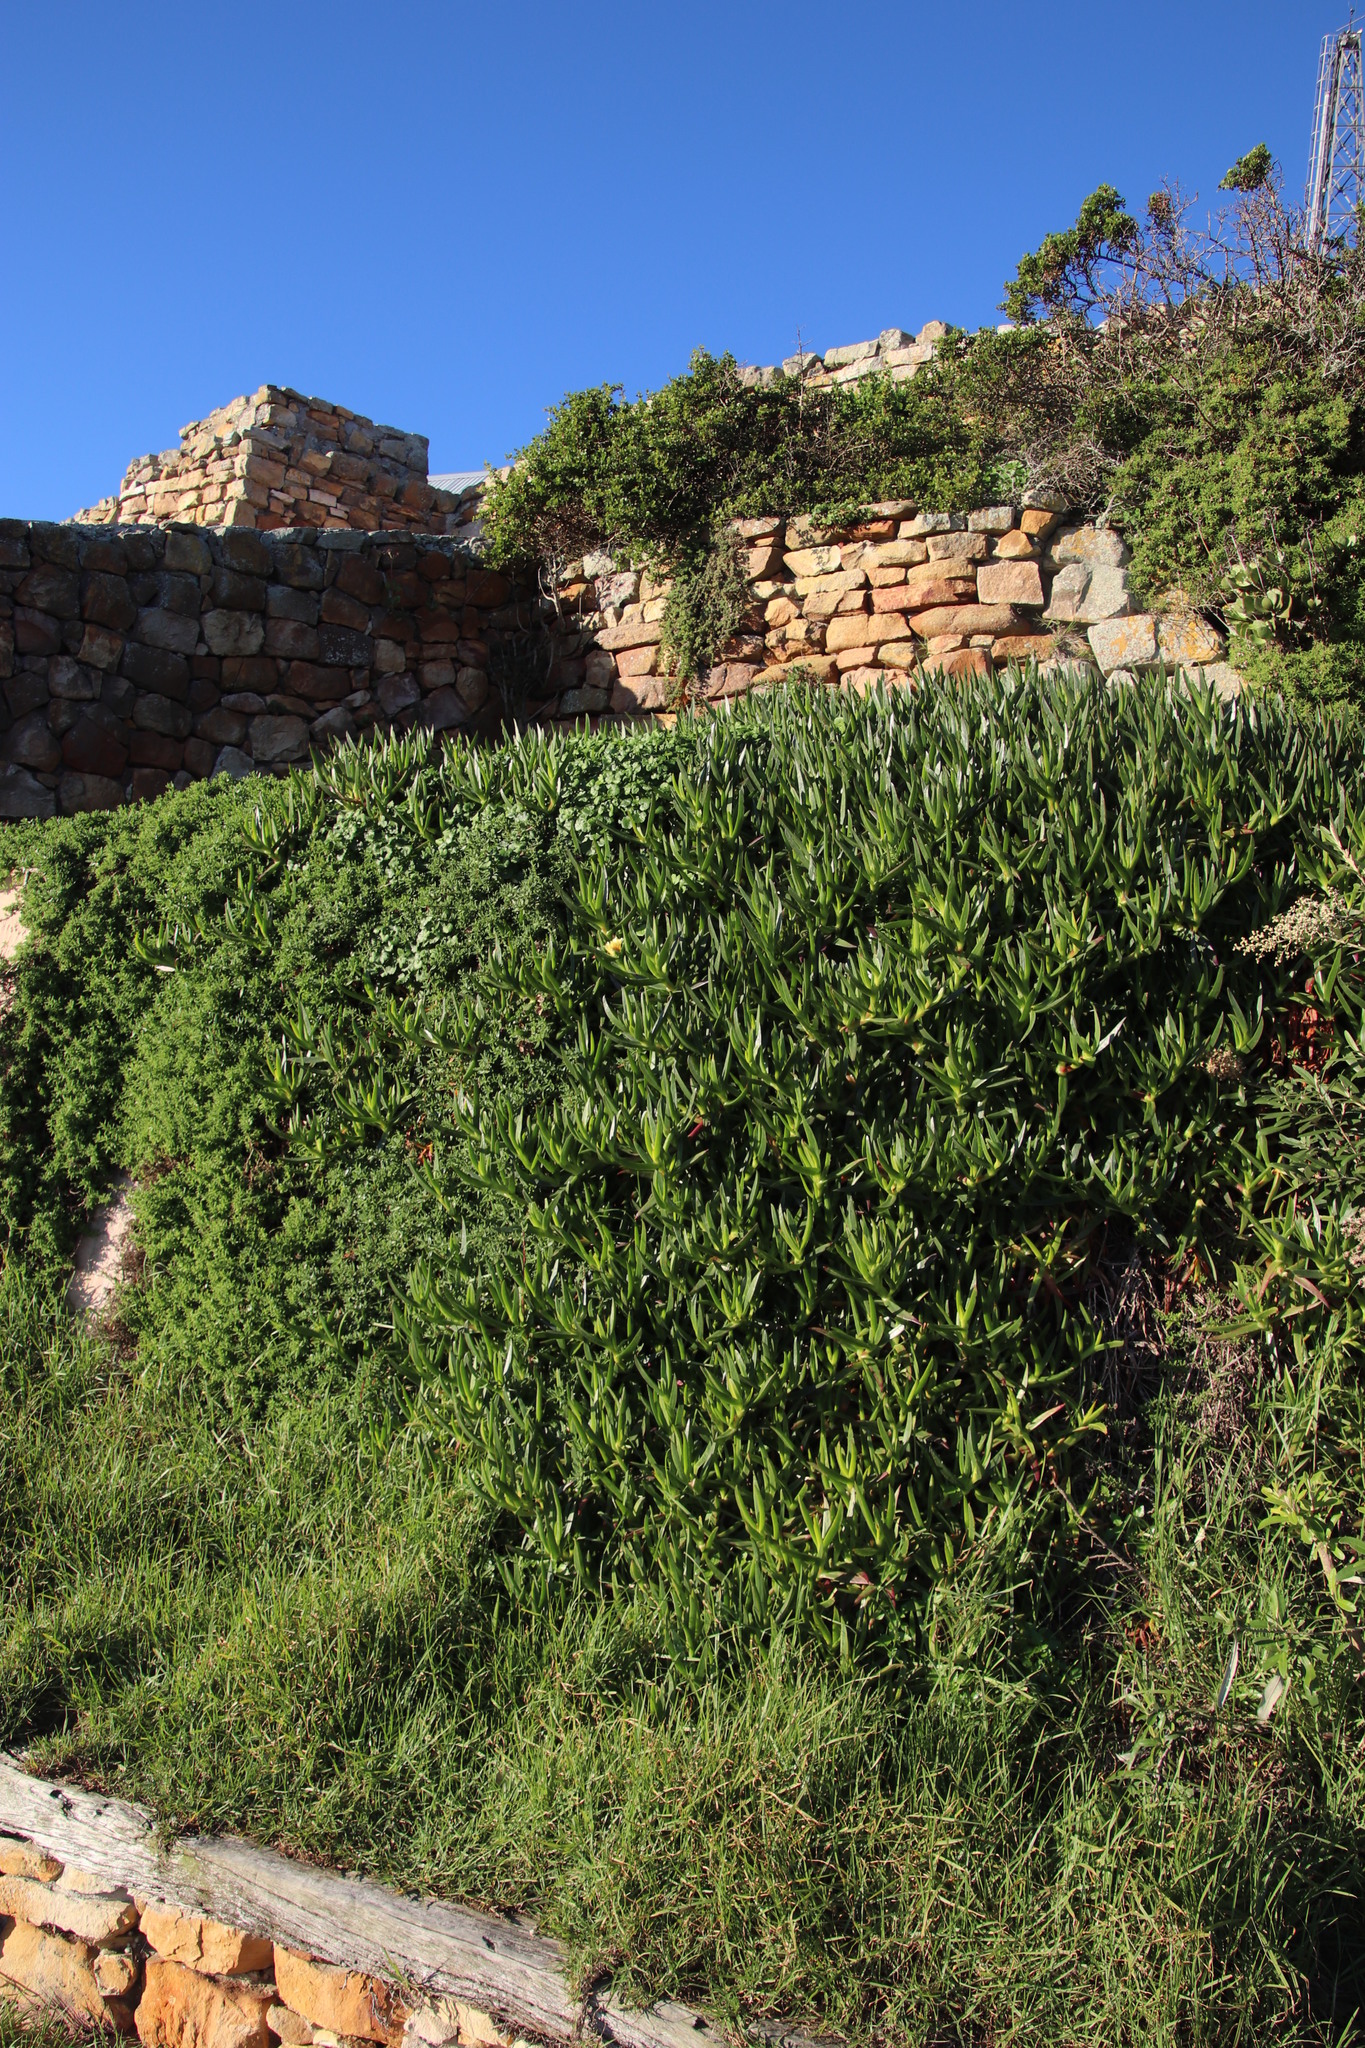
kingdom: Plantae
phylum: Tracheophyta
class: Magnoliopsida
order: Caryophyllales
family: Aizoaceae
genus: Carpobrotus
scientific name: Carpobrotus edulis
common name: Hottentot-fig
